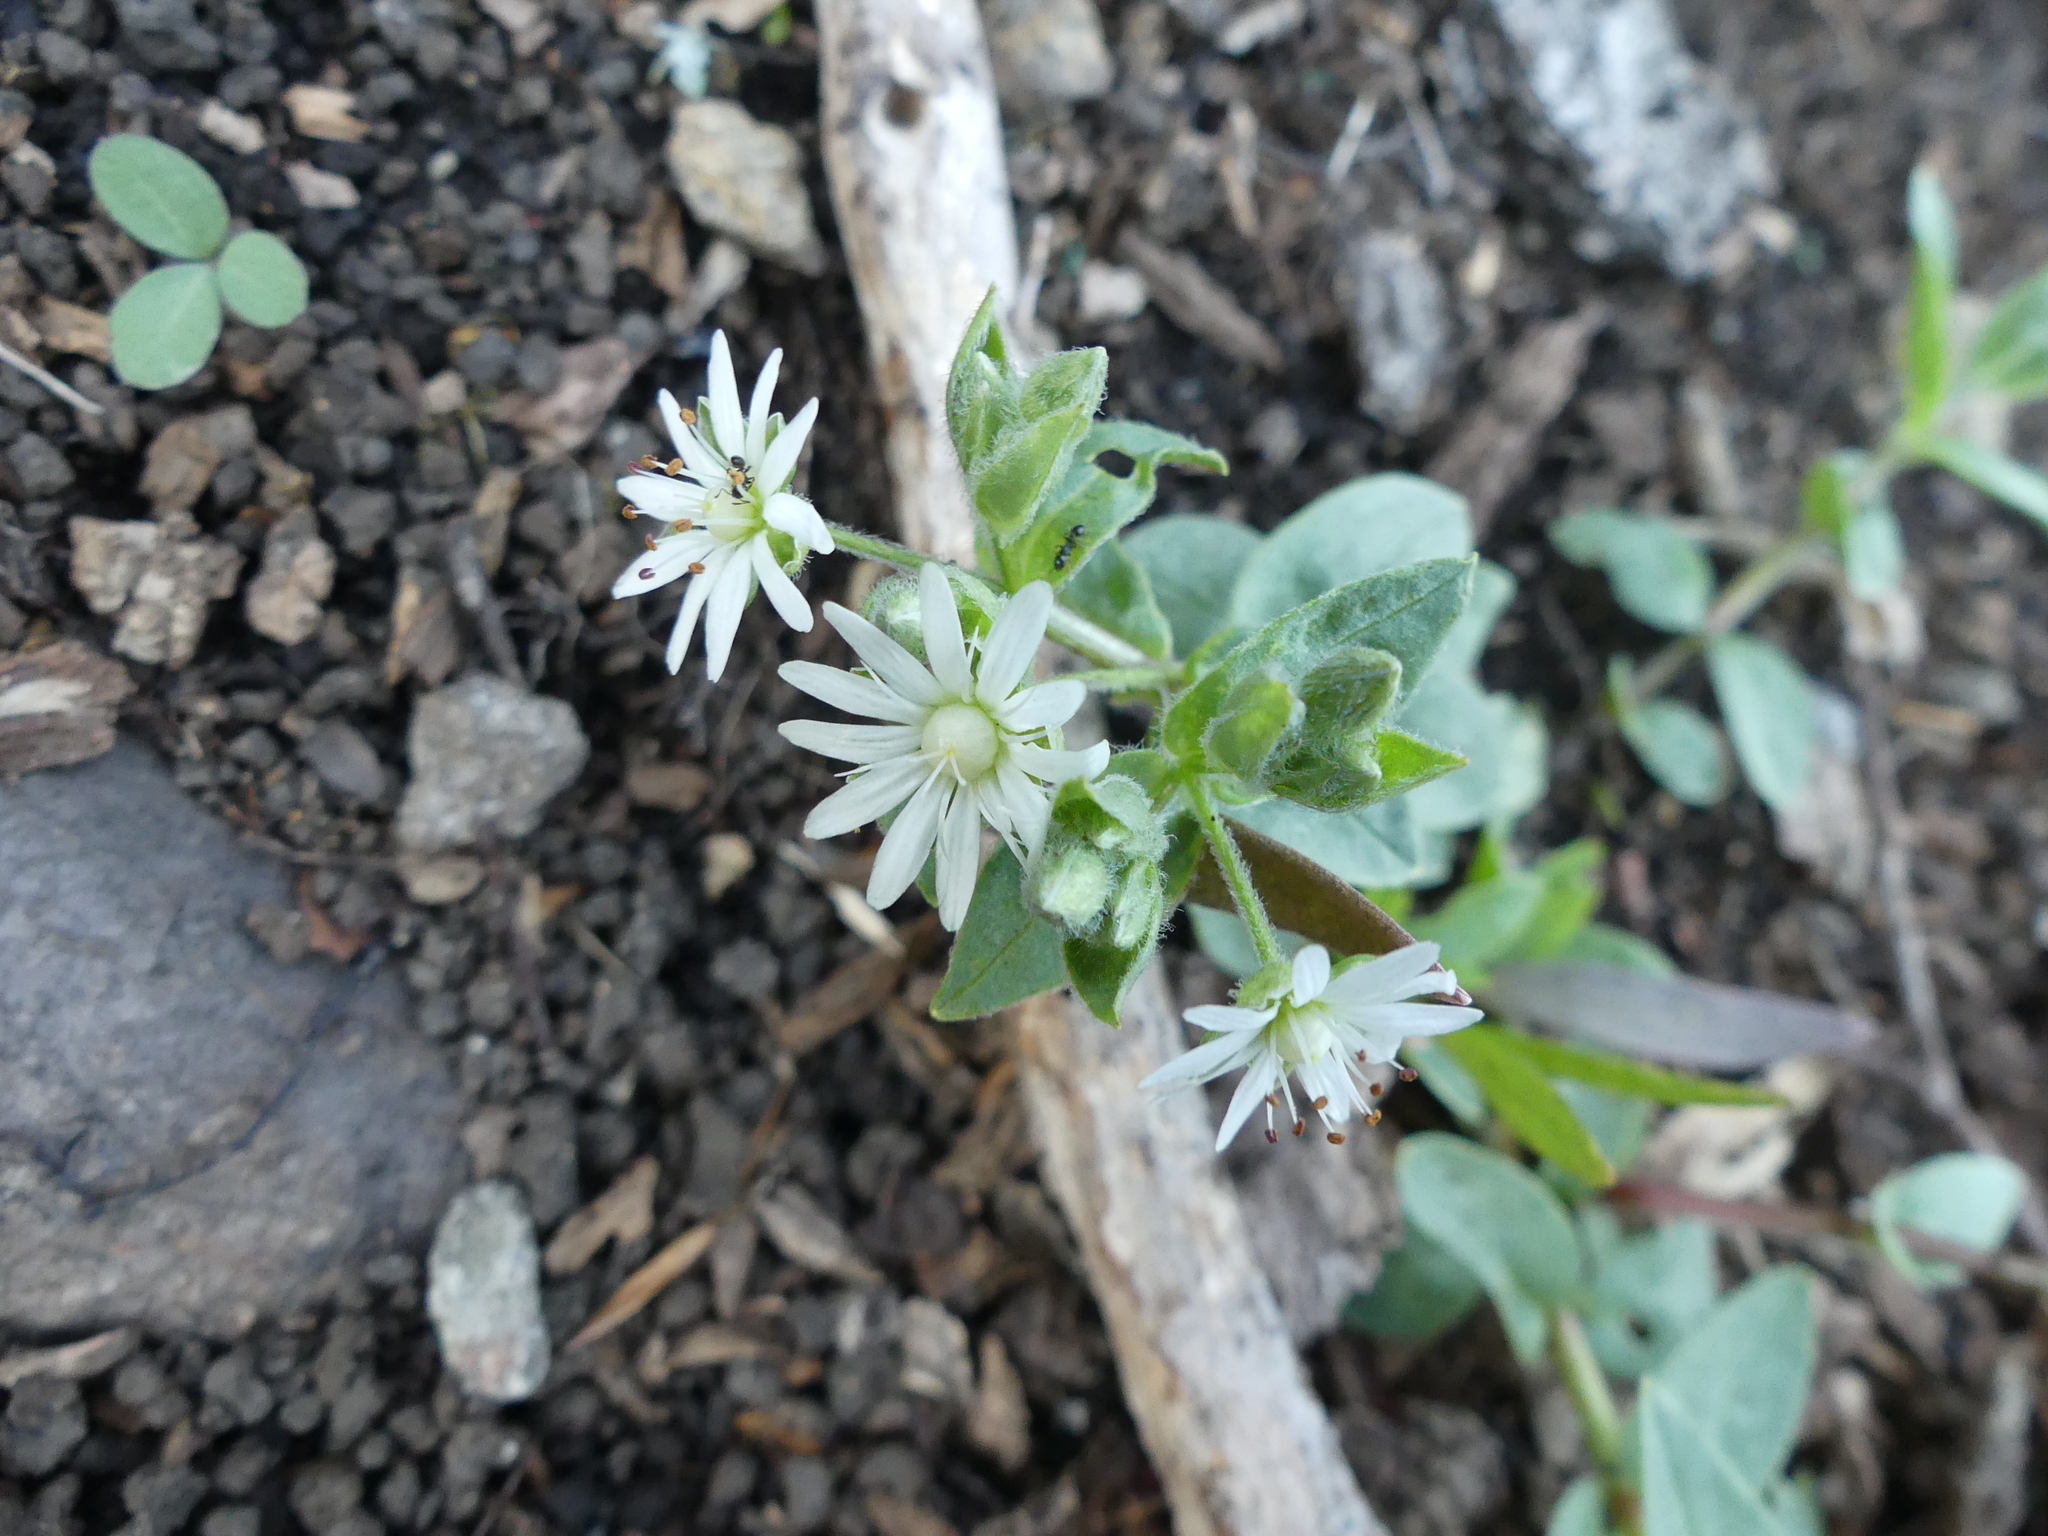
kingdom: Plantae
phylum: Tracheophyta
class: Magnoliopsida
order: Caryophyllales
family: Caryophyllaceae
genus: Stellaria
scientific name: Stellaria pubera
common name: Star chickweed
